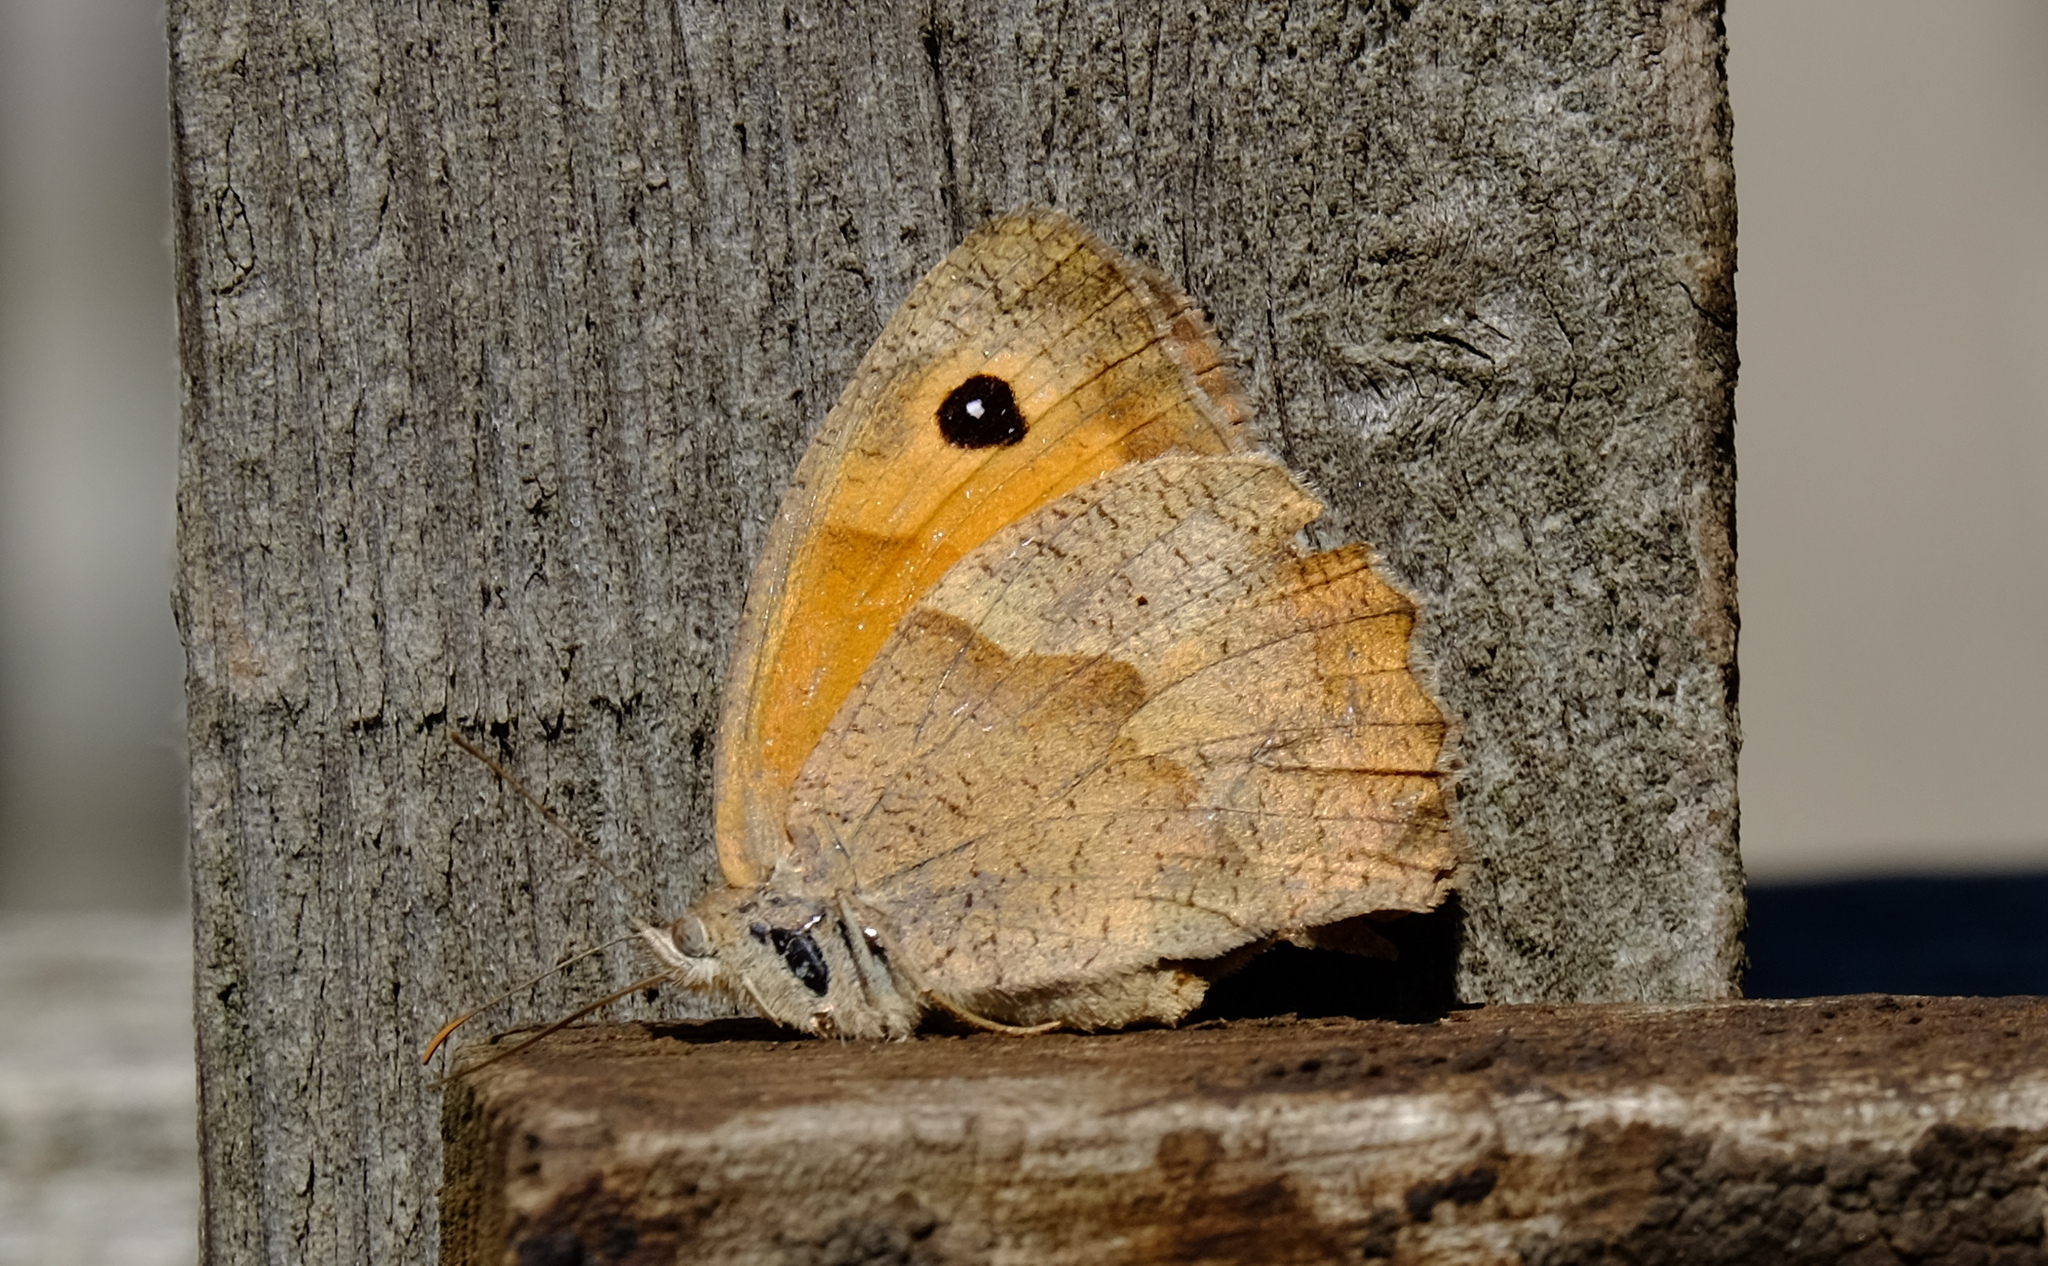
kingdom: Animalia
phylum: Arthropoda
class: Insecta
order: Lepidoptera
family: Nymphalidae
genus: Maniola
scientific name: Maniola jurtina
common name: Meadow brown
